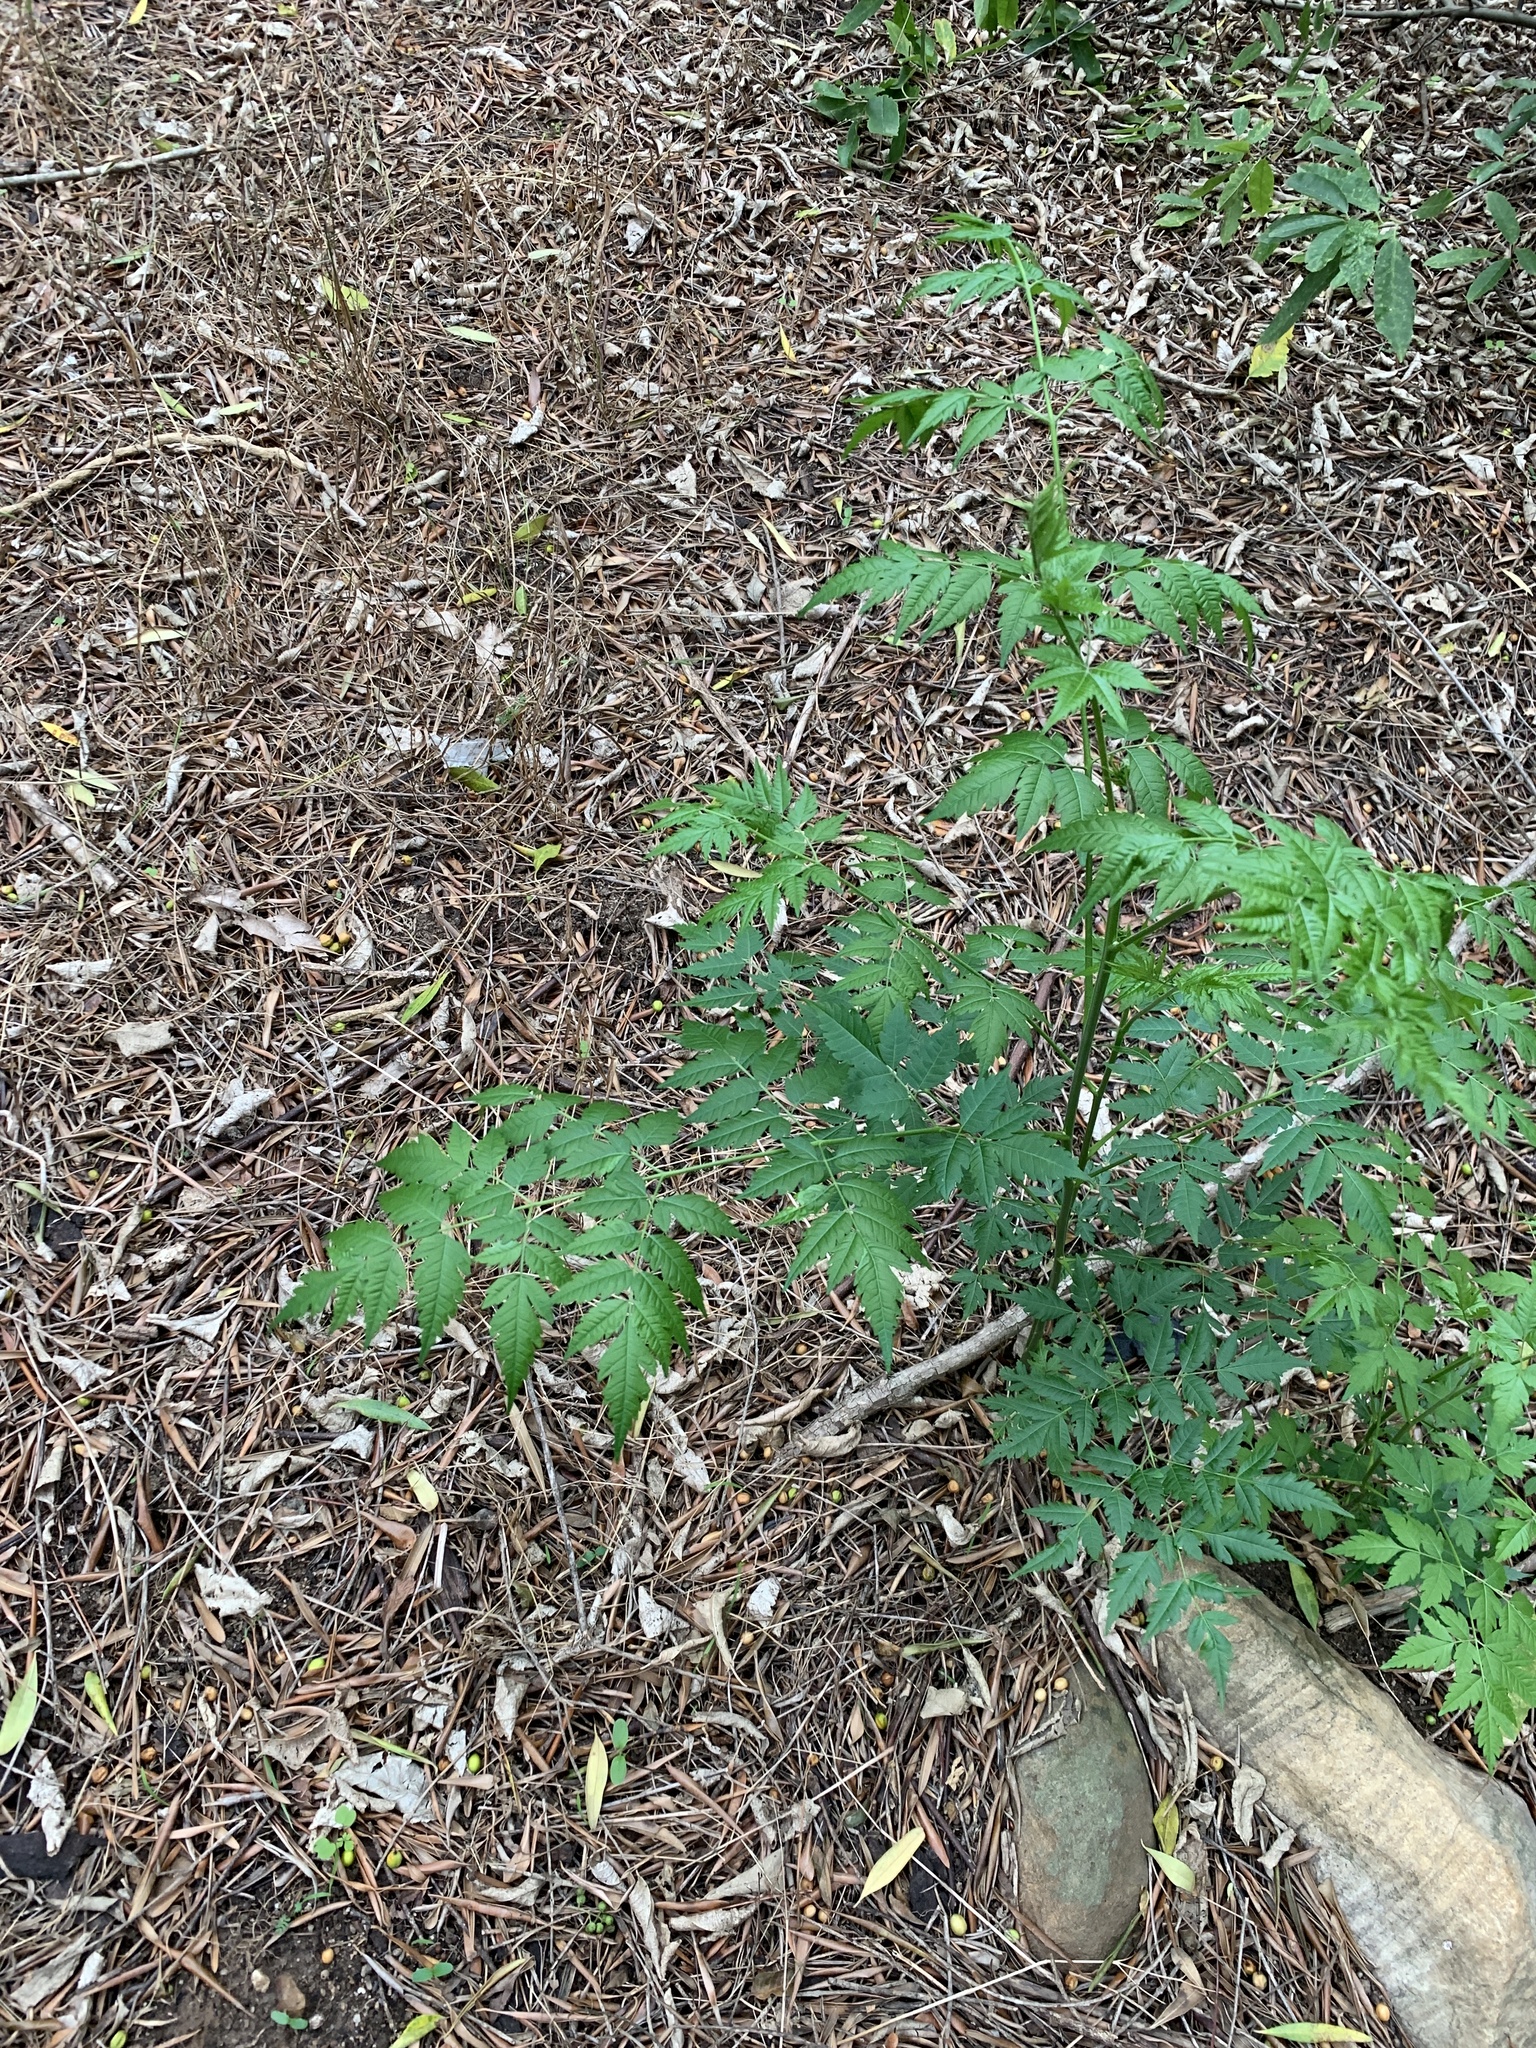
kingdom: Plantae
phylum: Tracheophyta
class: Magnoliopsida
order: Sapindales
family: Meliaceae
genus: Melia
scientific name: Melia azedarach
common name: Chinaberrytree
